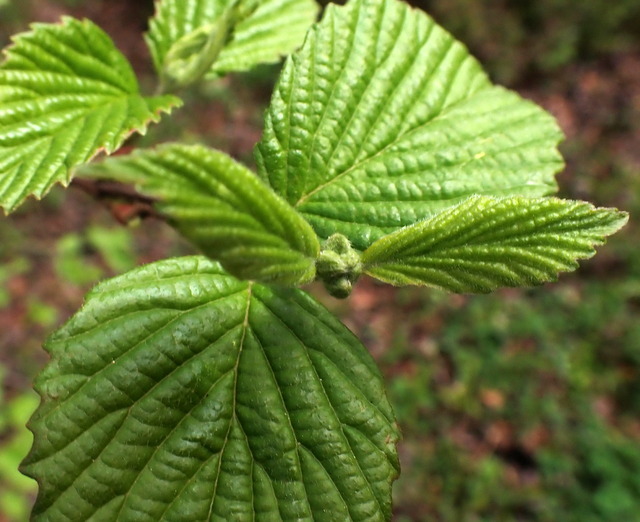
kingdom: Plantae
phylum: Tracheophyta
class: Magnoliopsida
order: Dipsacales
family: Viburnaceae
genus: Viburnum
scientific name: Viburnum scabrellum
